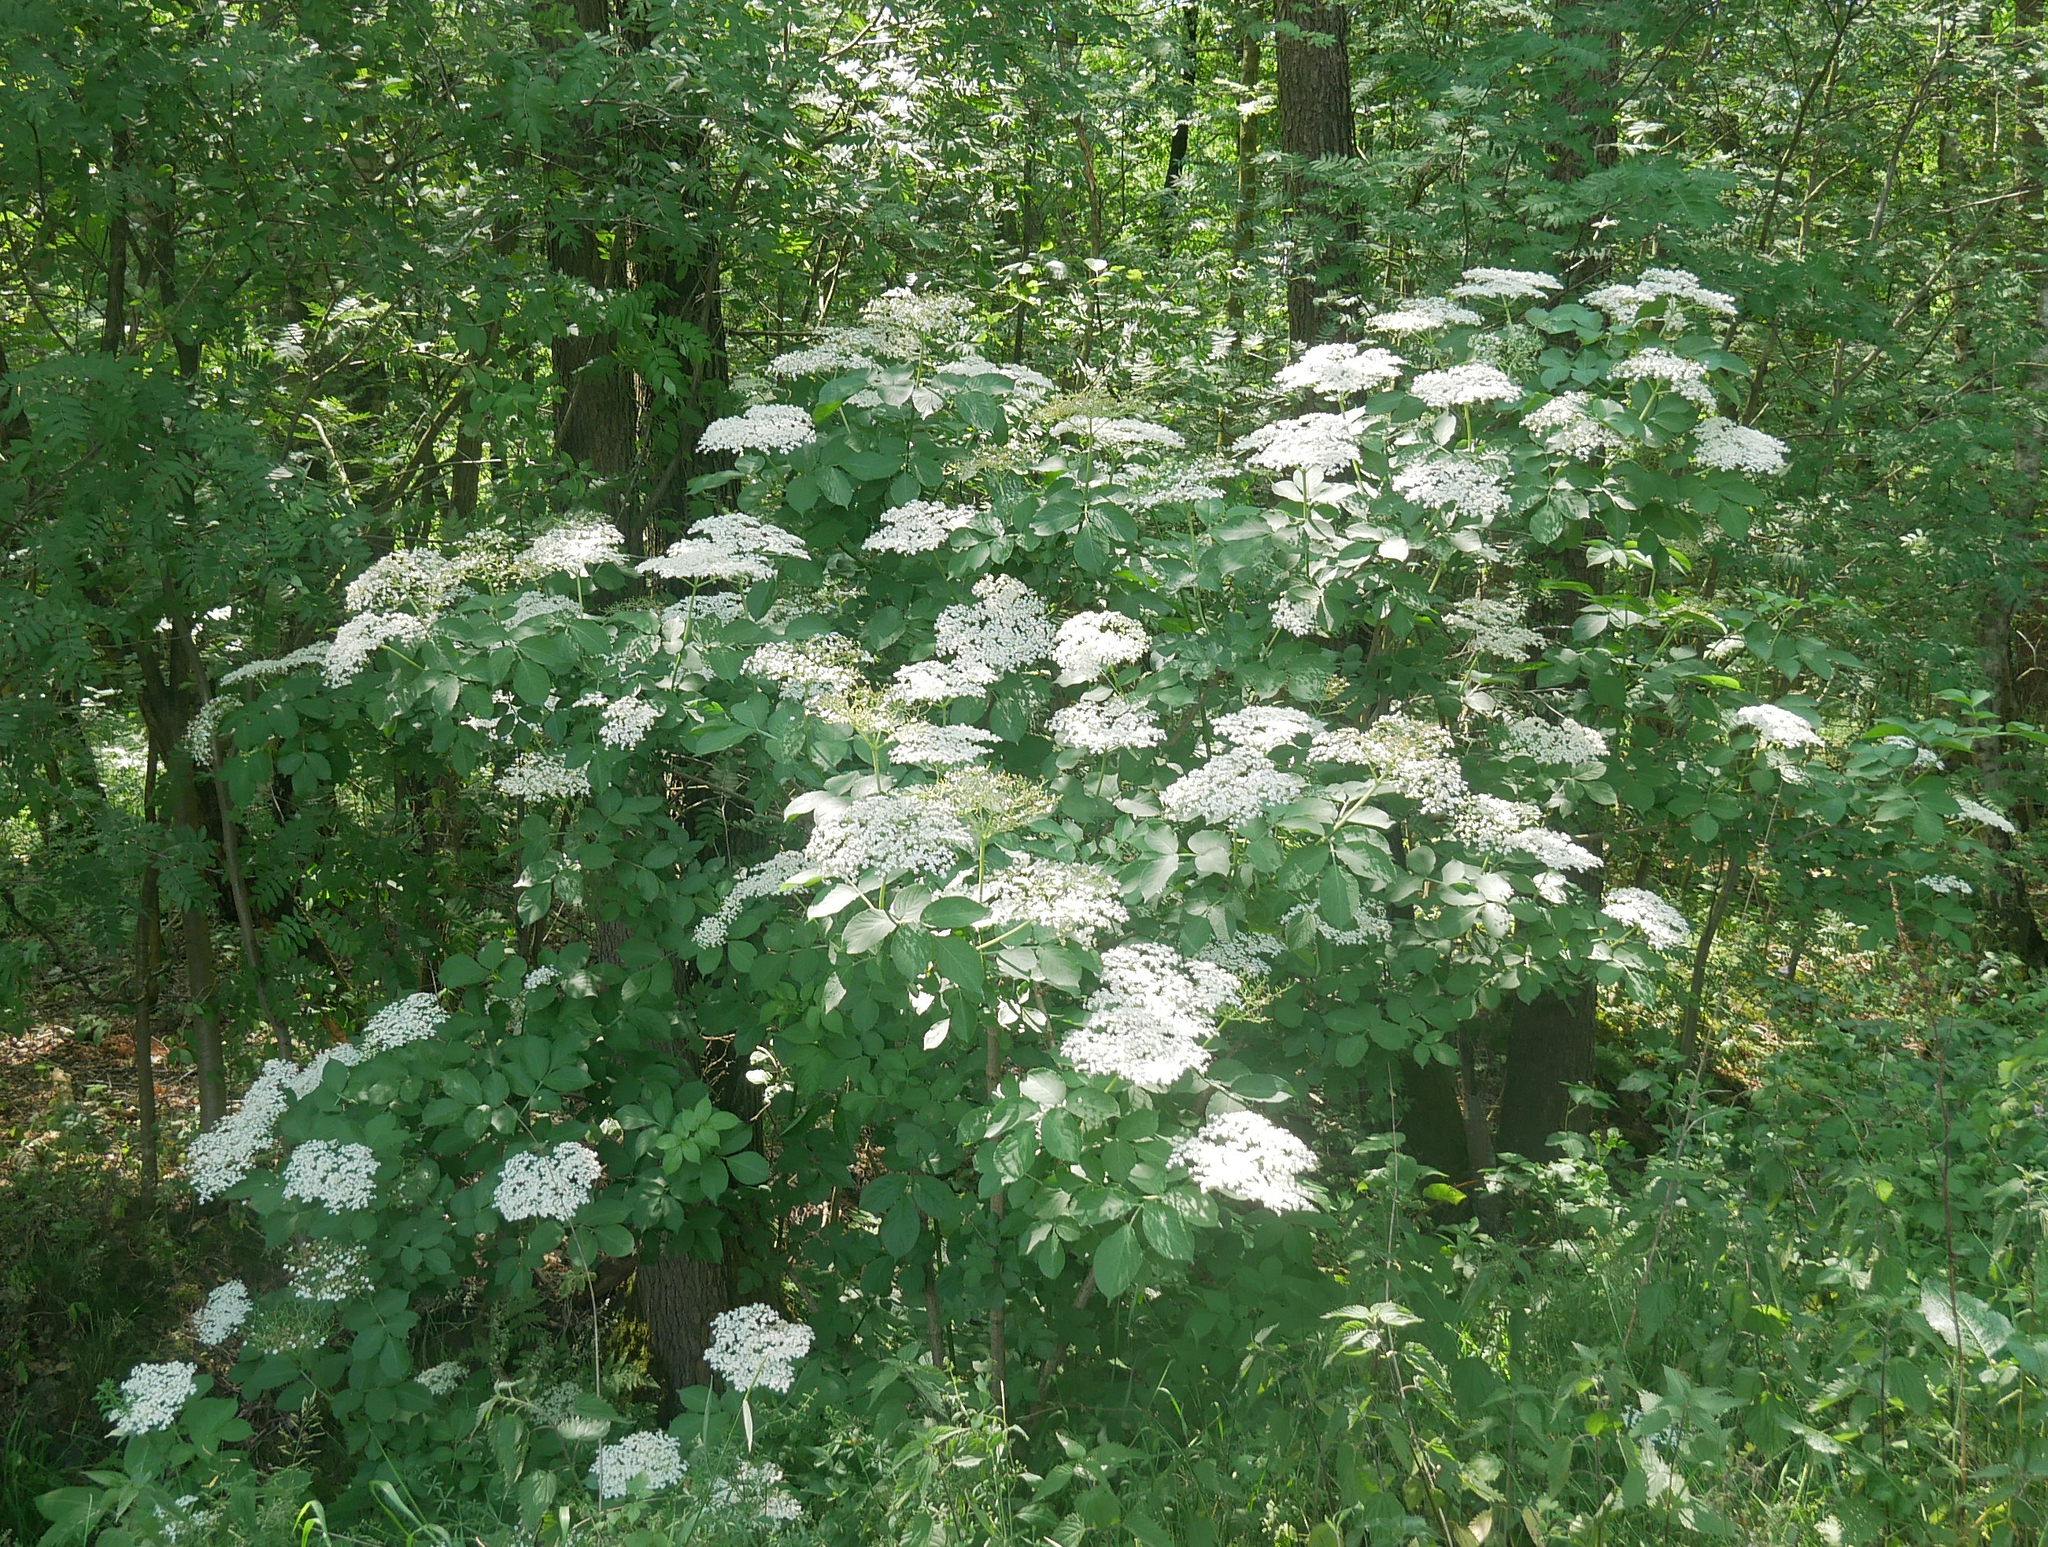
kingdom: Plantae
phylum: Tracheophyta
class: Magnoliopsida
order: Dipsacales
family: Viburnaceae
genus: Sambucus
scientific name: Sambucus nigra
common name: Elder
